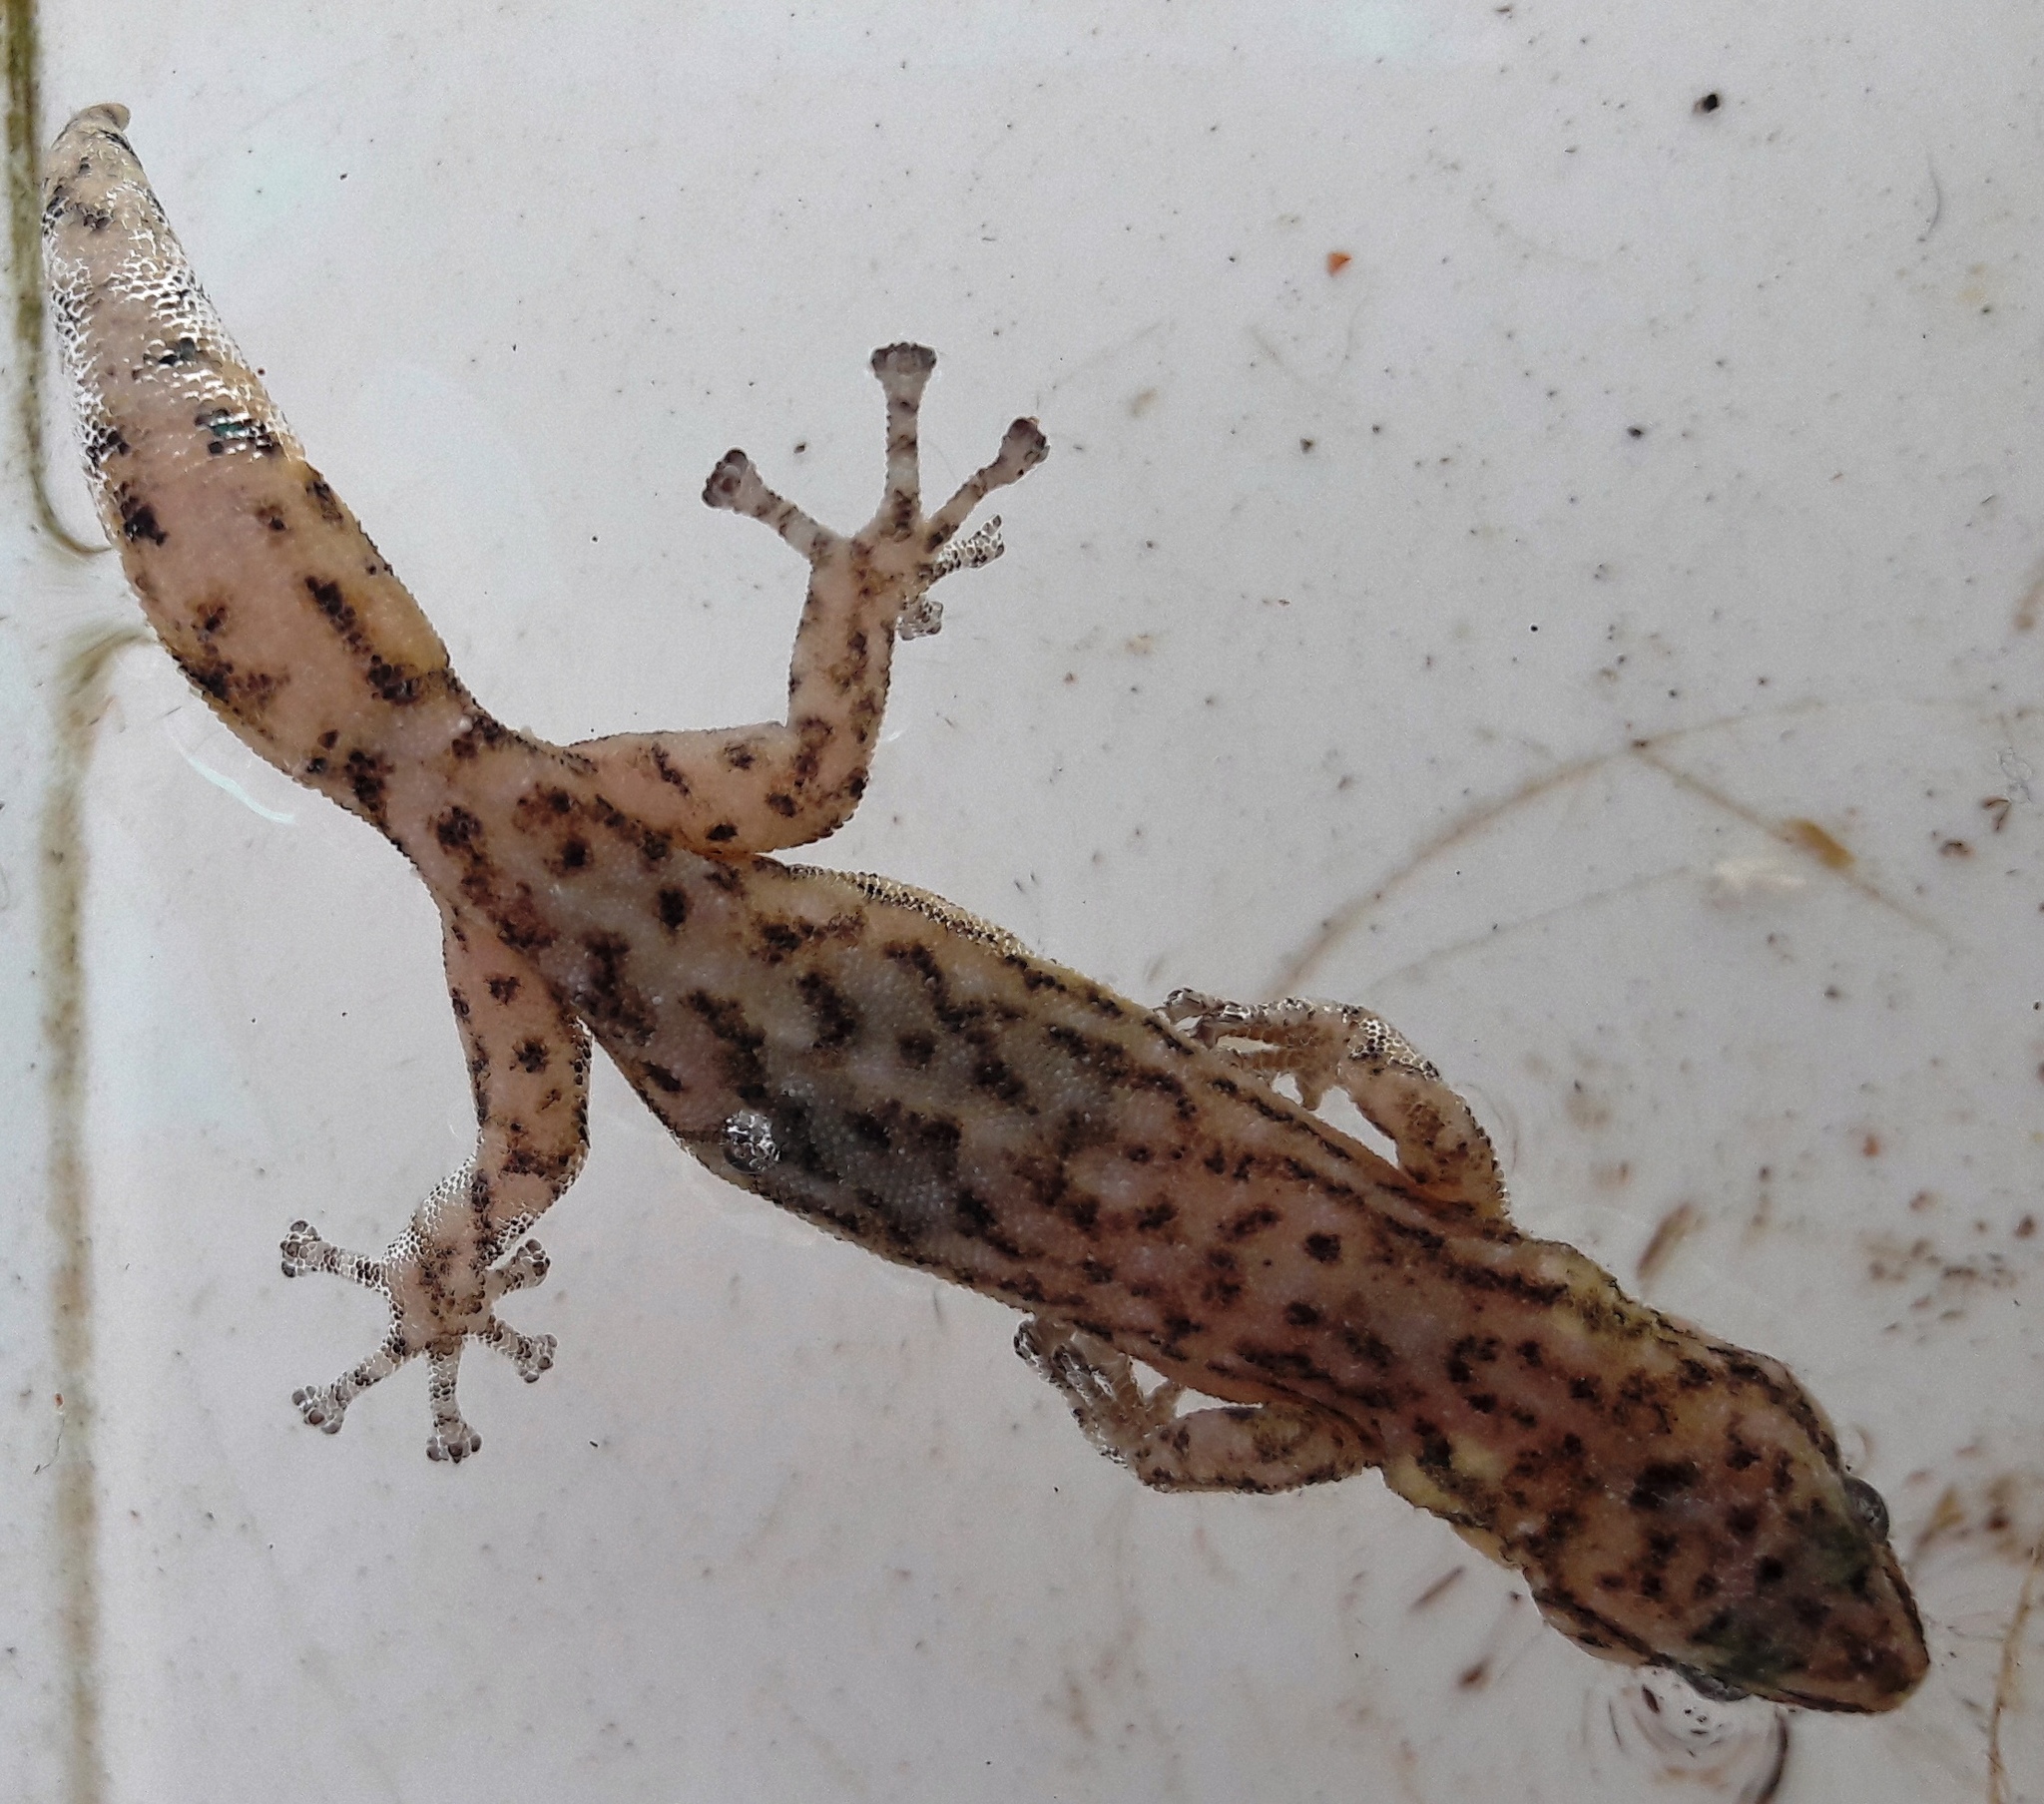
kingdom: Animalia
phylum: Chordata
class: Squamata
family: Gekkonidae
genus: Afrogecko
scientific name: Afrogecko porphyreus
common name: Marbled leaf-toed gecko
